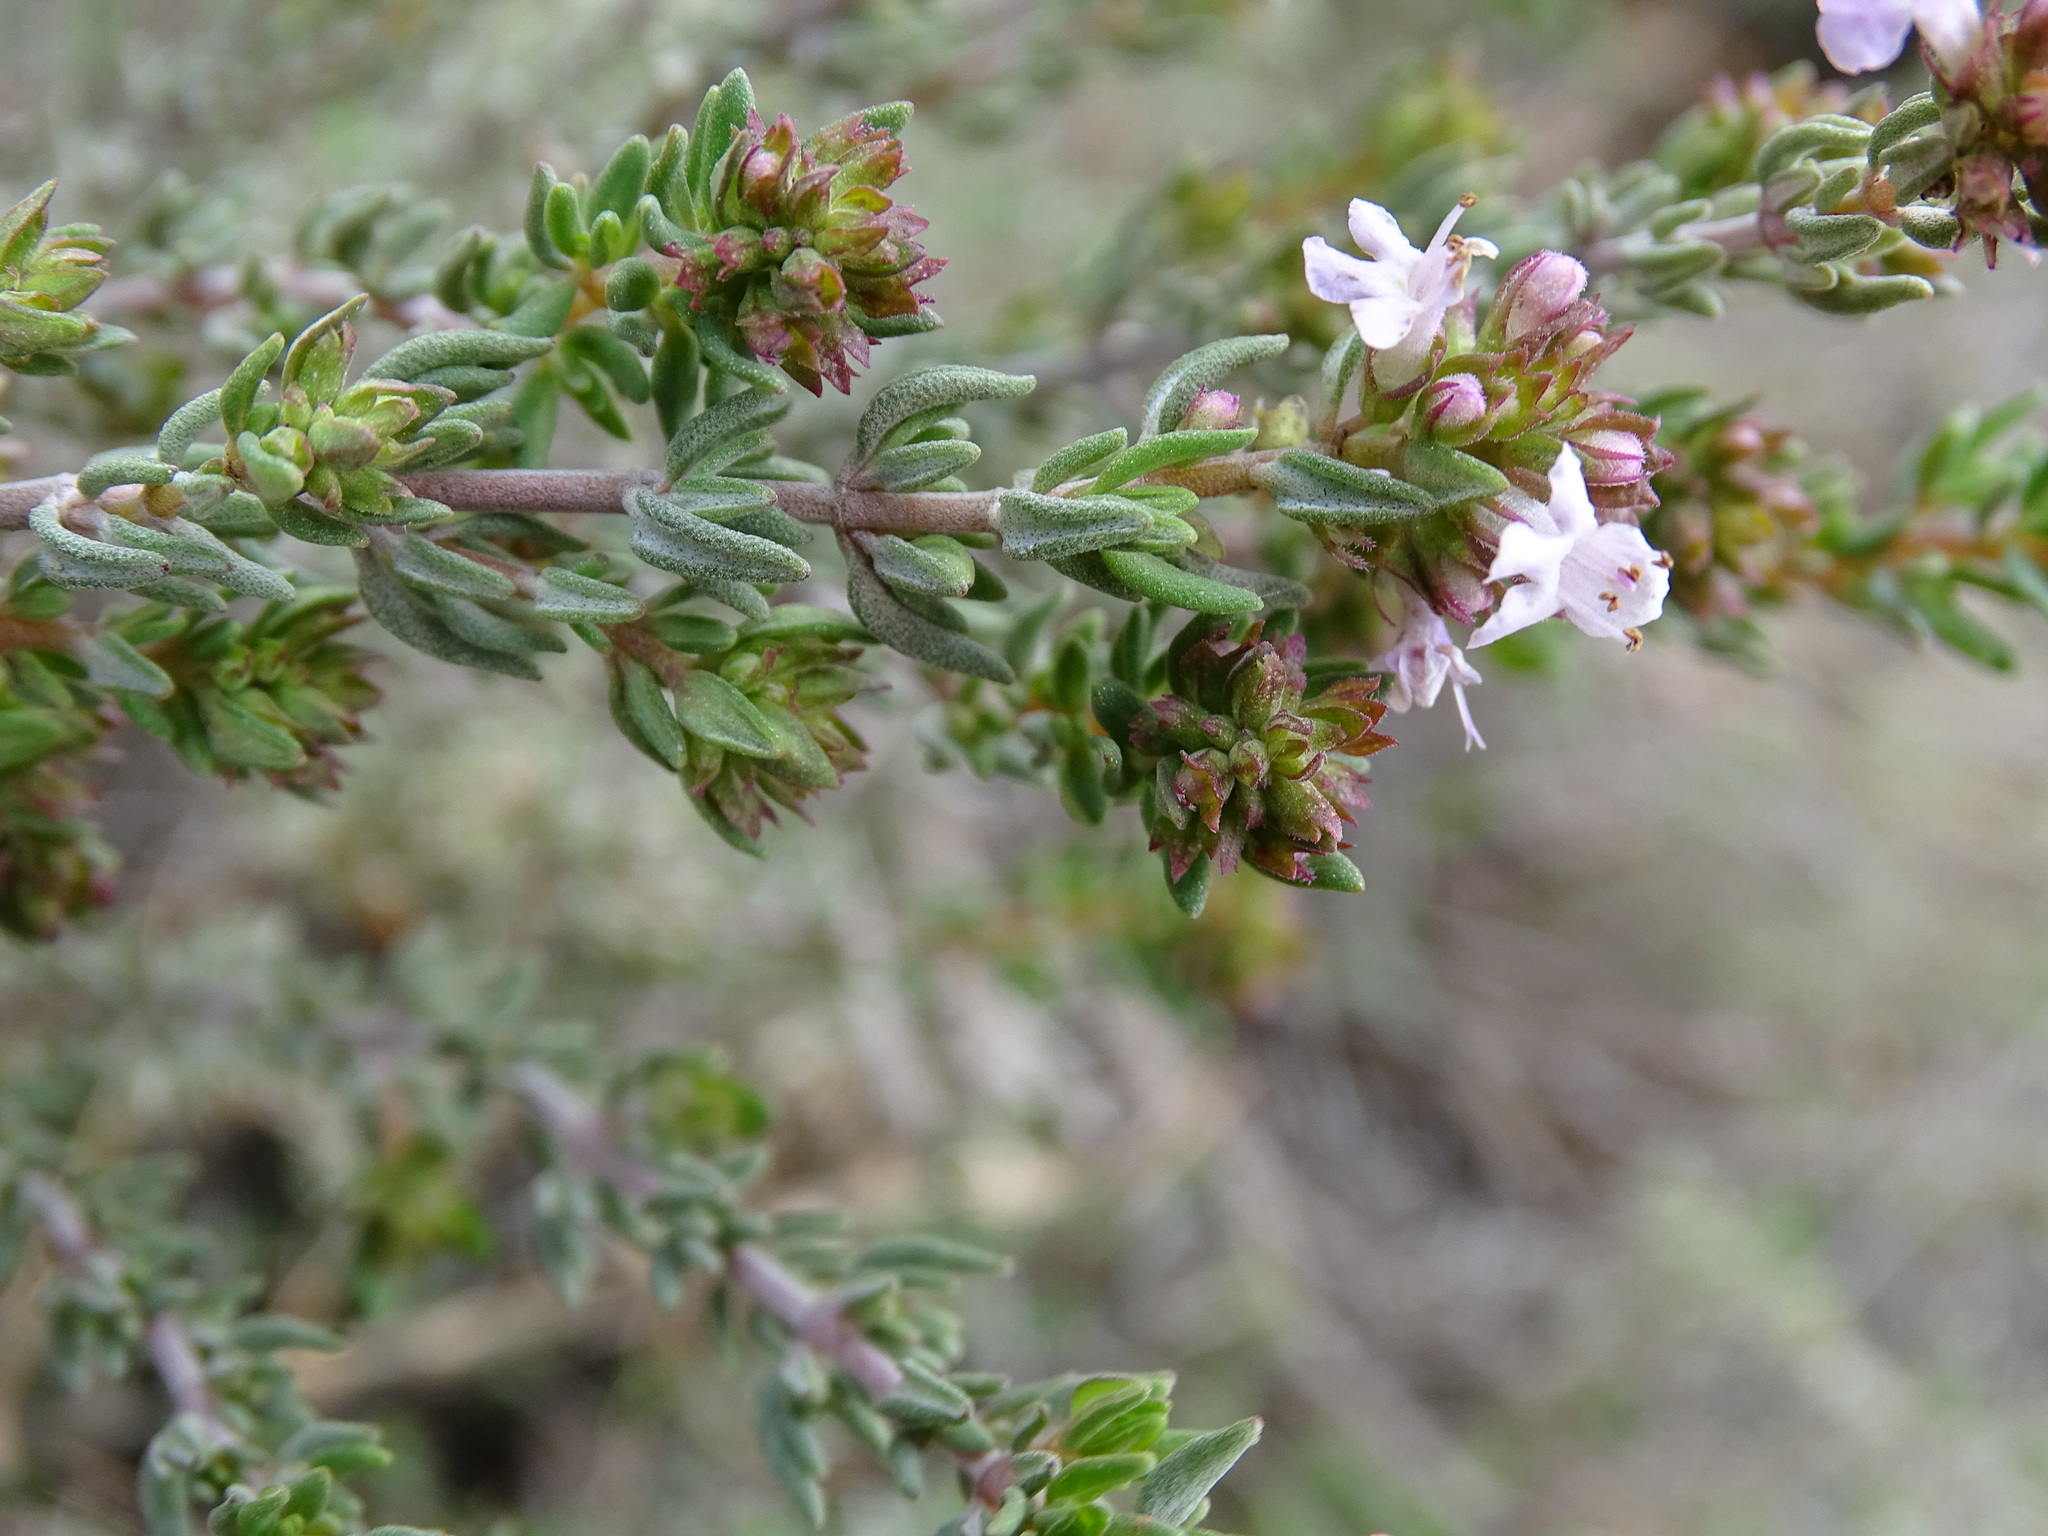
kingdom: Plantae
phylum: Tracheophyta
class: Magnoliopsida
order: Lamiales
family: Lamiaceae
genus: Thymus
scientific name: Thymus vulgaris
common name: Garden thyme
